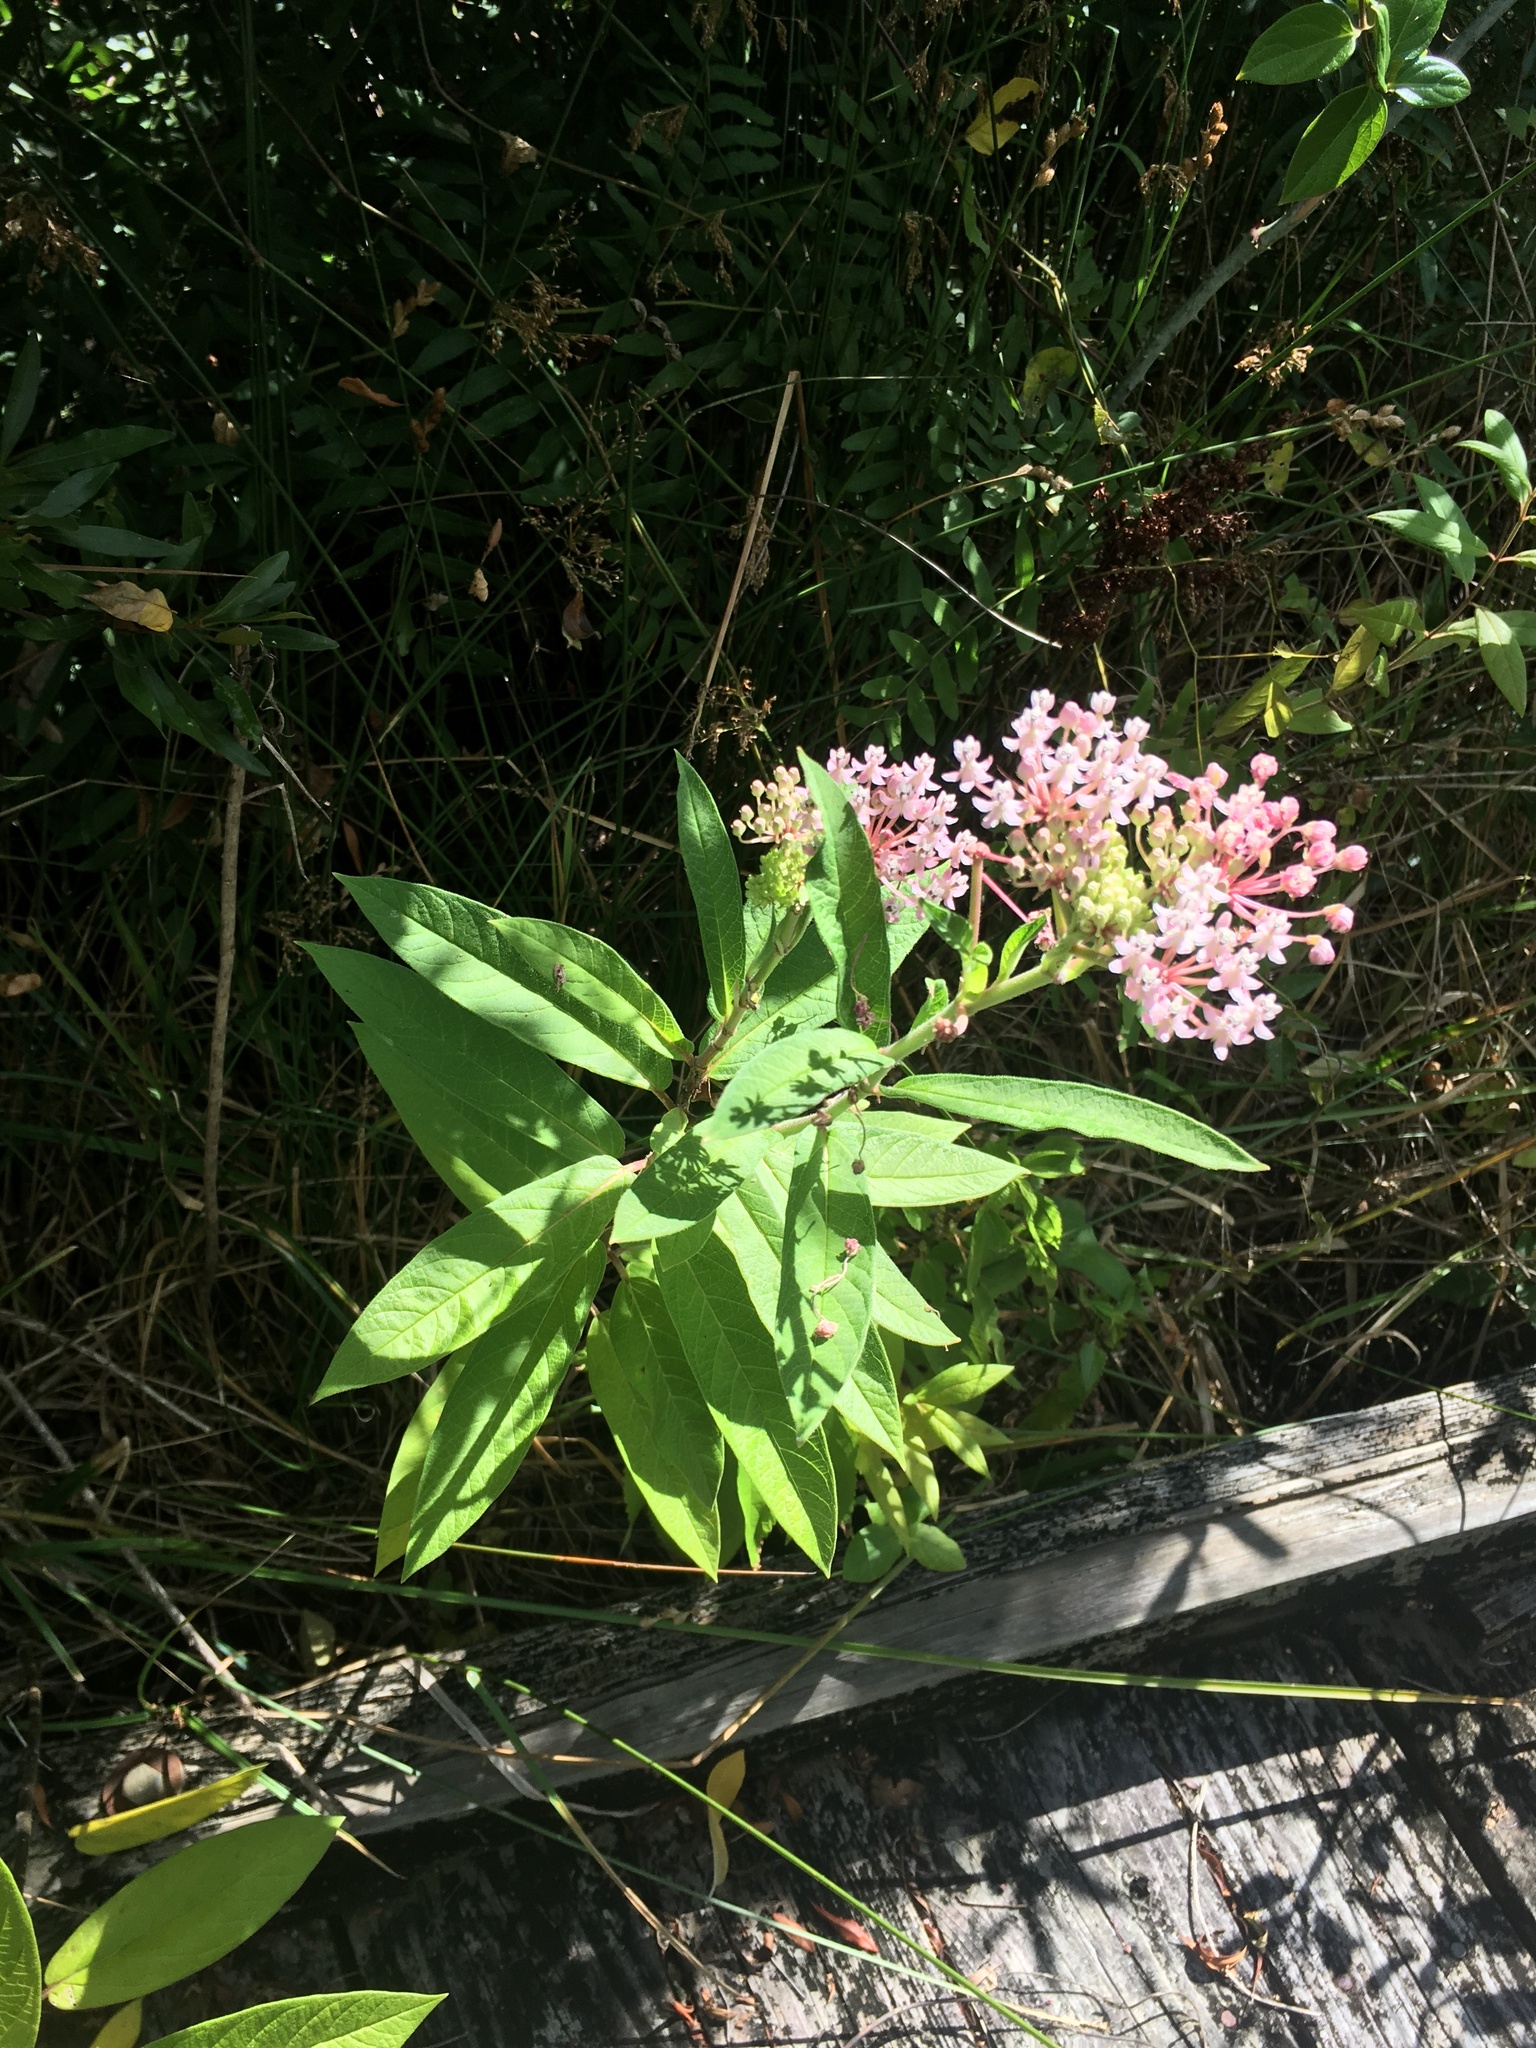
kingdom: Plantae
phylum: Tracheophyta
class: Magnoliopsida
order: Gentianales
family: Apocynaceae
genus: Asclepias
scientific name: Asclepias incarnata
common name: Swamp milkweed
